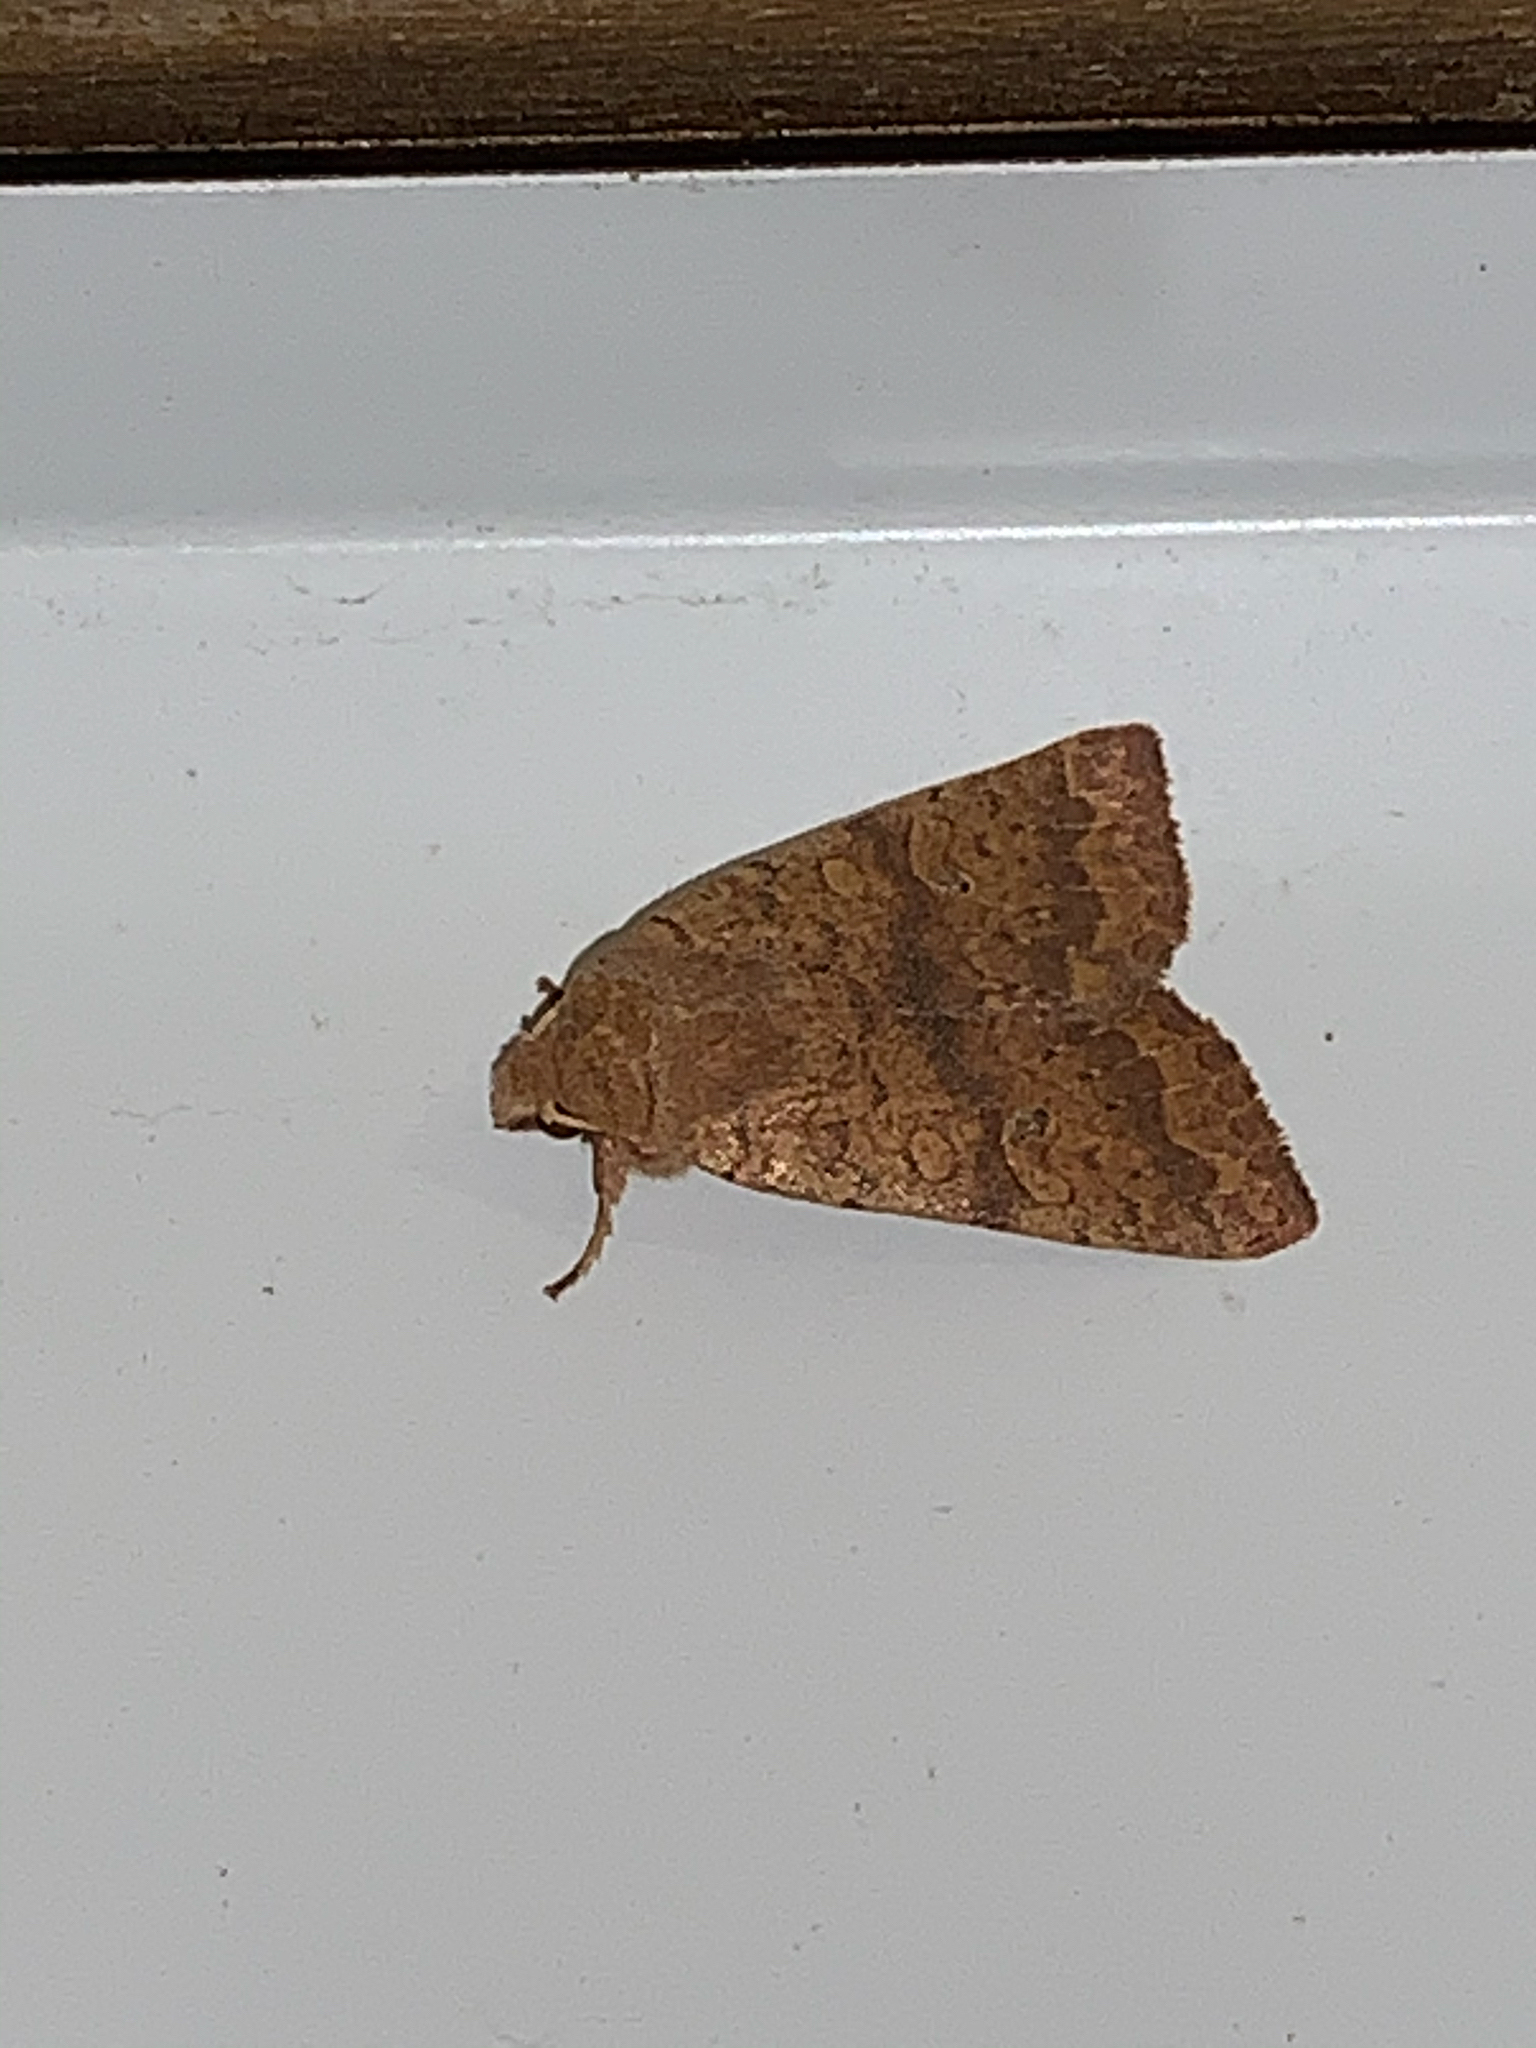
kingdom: Animalia
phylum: Arthropoda
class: Insecta
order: Lepidoptera
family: Noctuidae
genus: Agrochola
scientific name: Agrochola bicolorago
